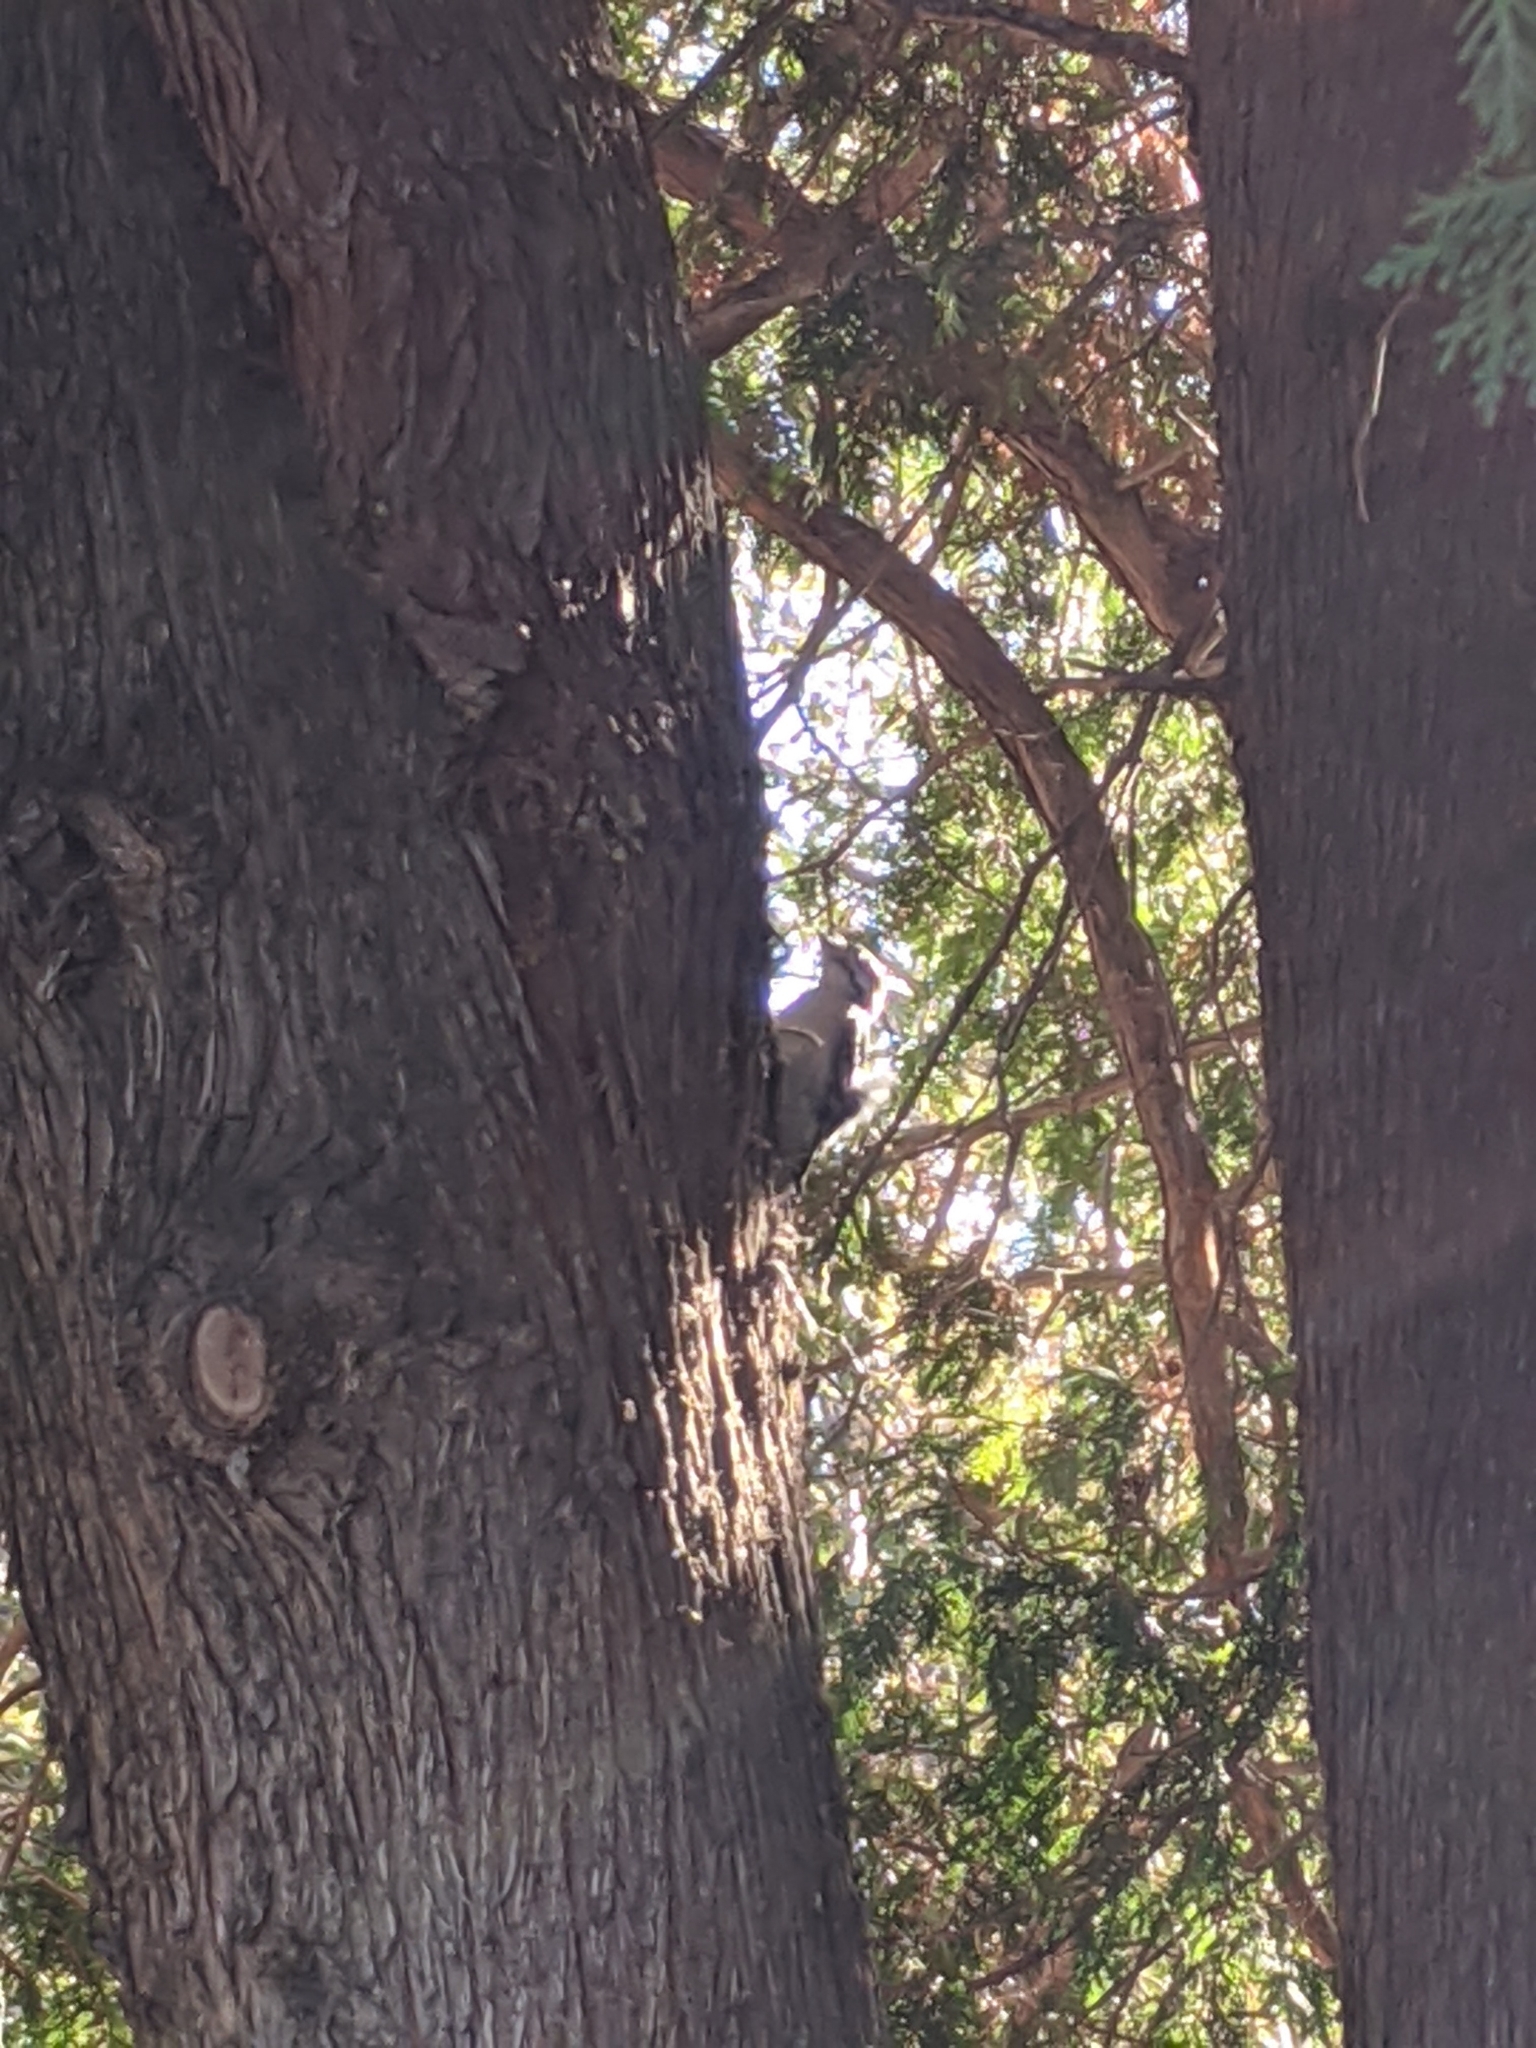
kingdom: Animalia
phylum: Chordata
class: Aves
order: Piciformes
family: Picidae
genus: Dryobates
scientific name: Dryobates pubescens
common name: Downy woodpecker
